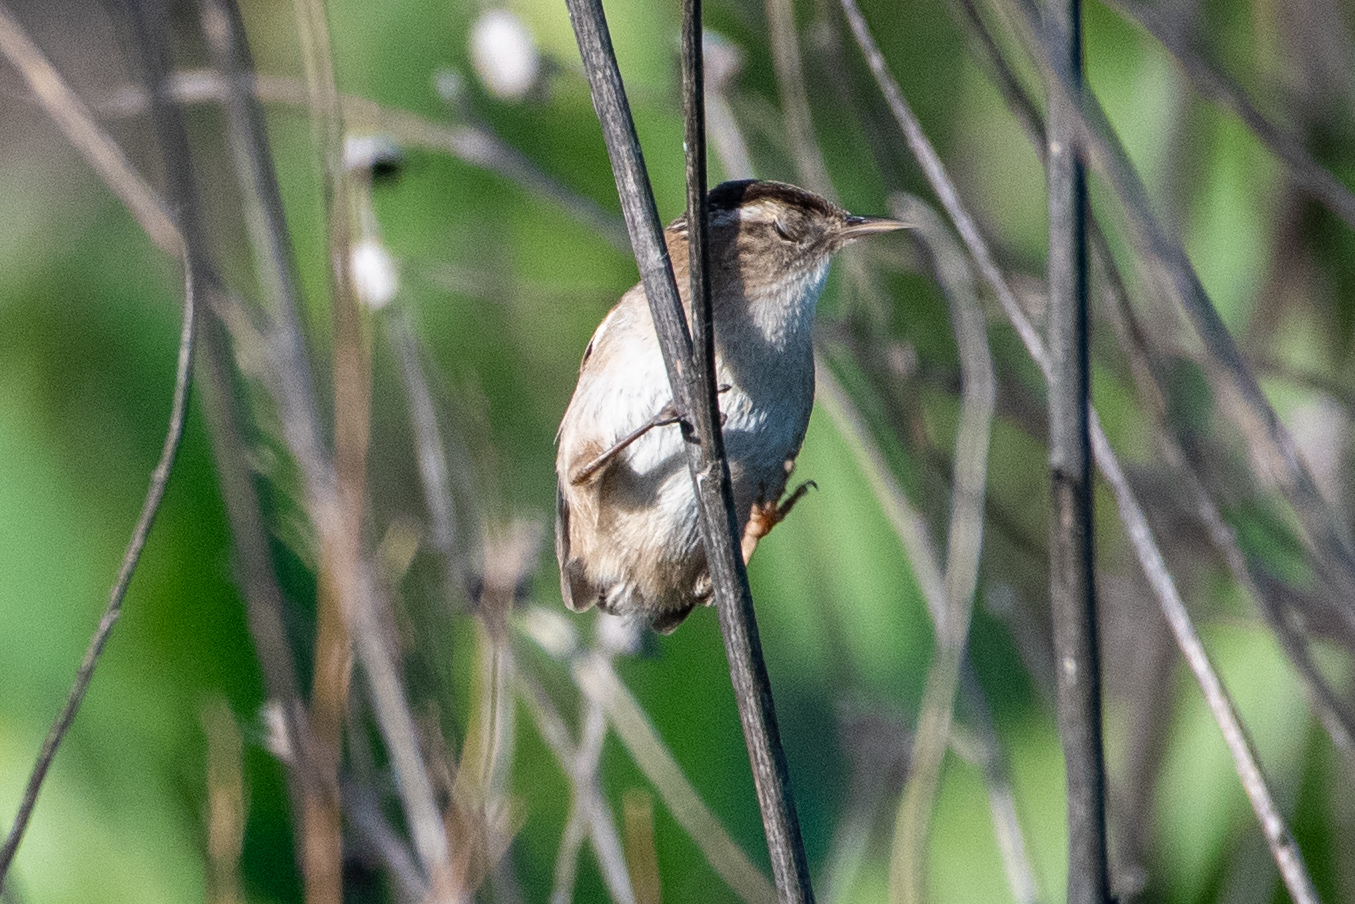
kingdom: Animalia
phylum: Chordata
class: Aves
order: Passeriformes
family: Troglodytidae
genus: Cistothorus
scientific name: Cistothorus palustris
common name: Marsh wren
